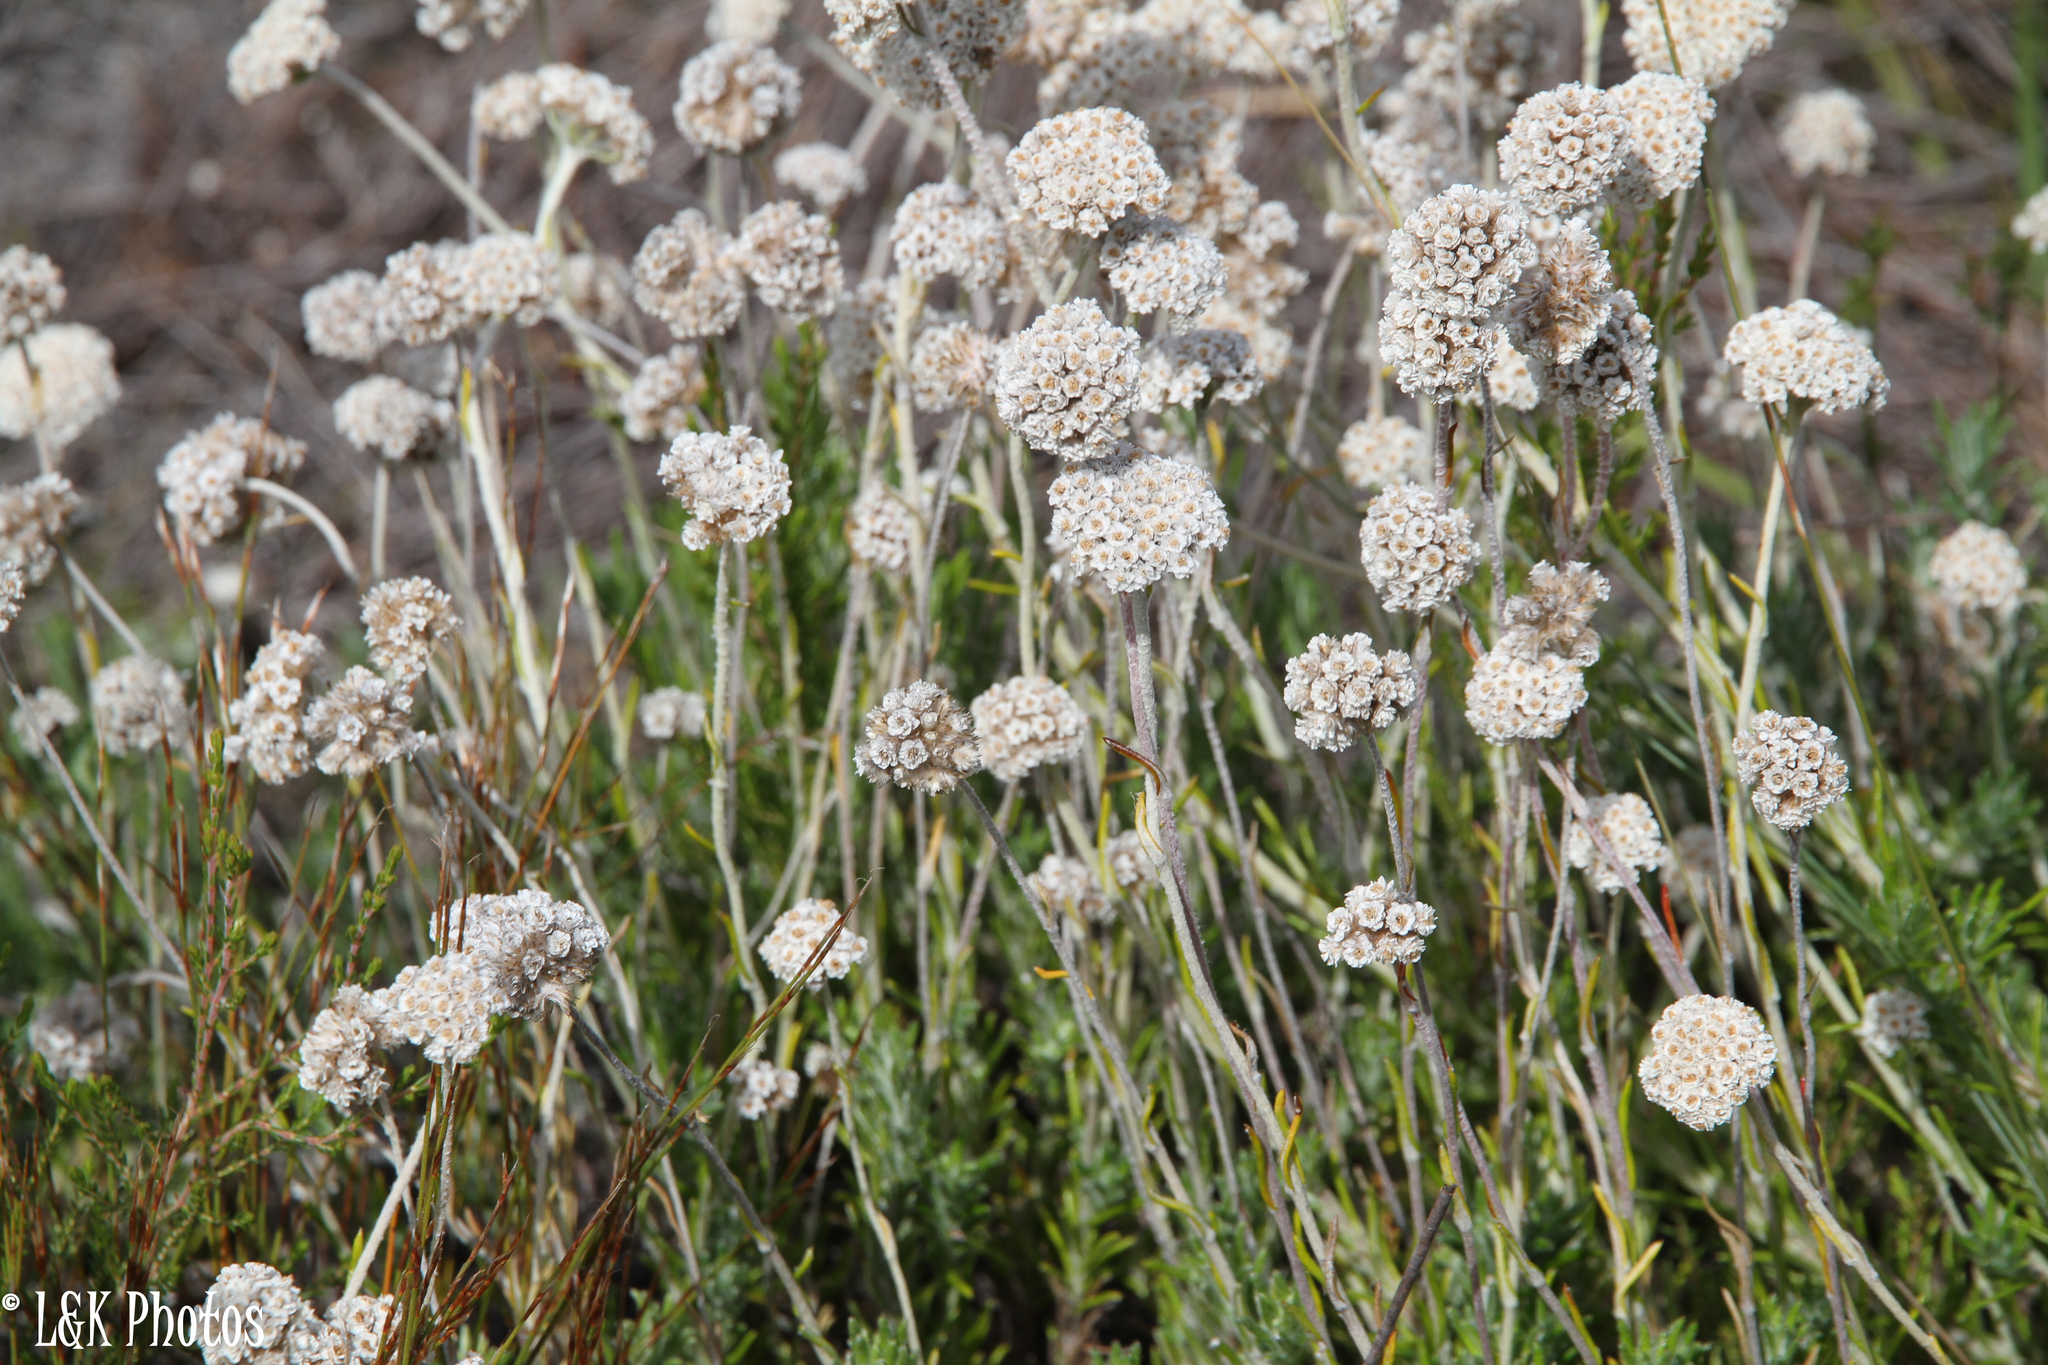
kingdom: Plantae
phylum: Tracheophyta
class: Magnoliopsida
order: Asterales
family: Asteraceae
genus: Anaxeton
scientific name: Anaxeton asperum
